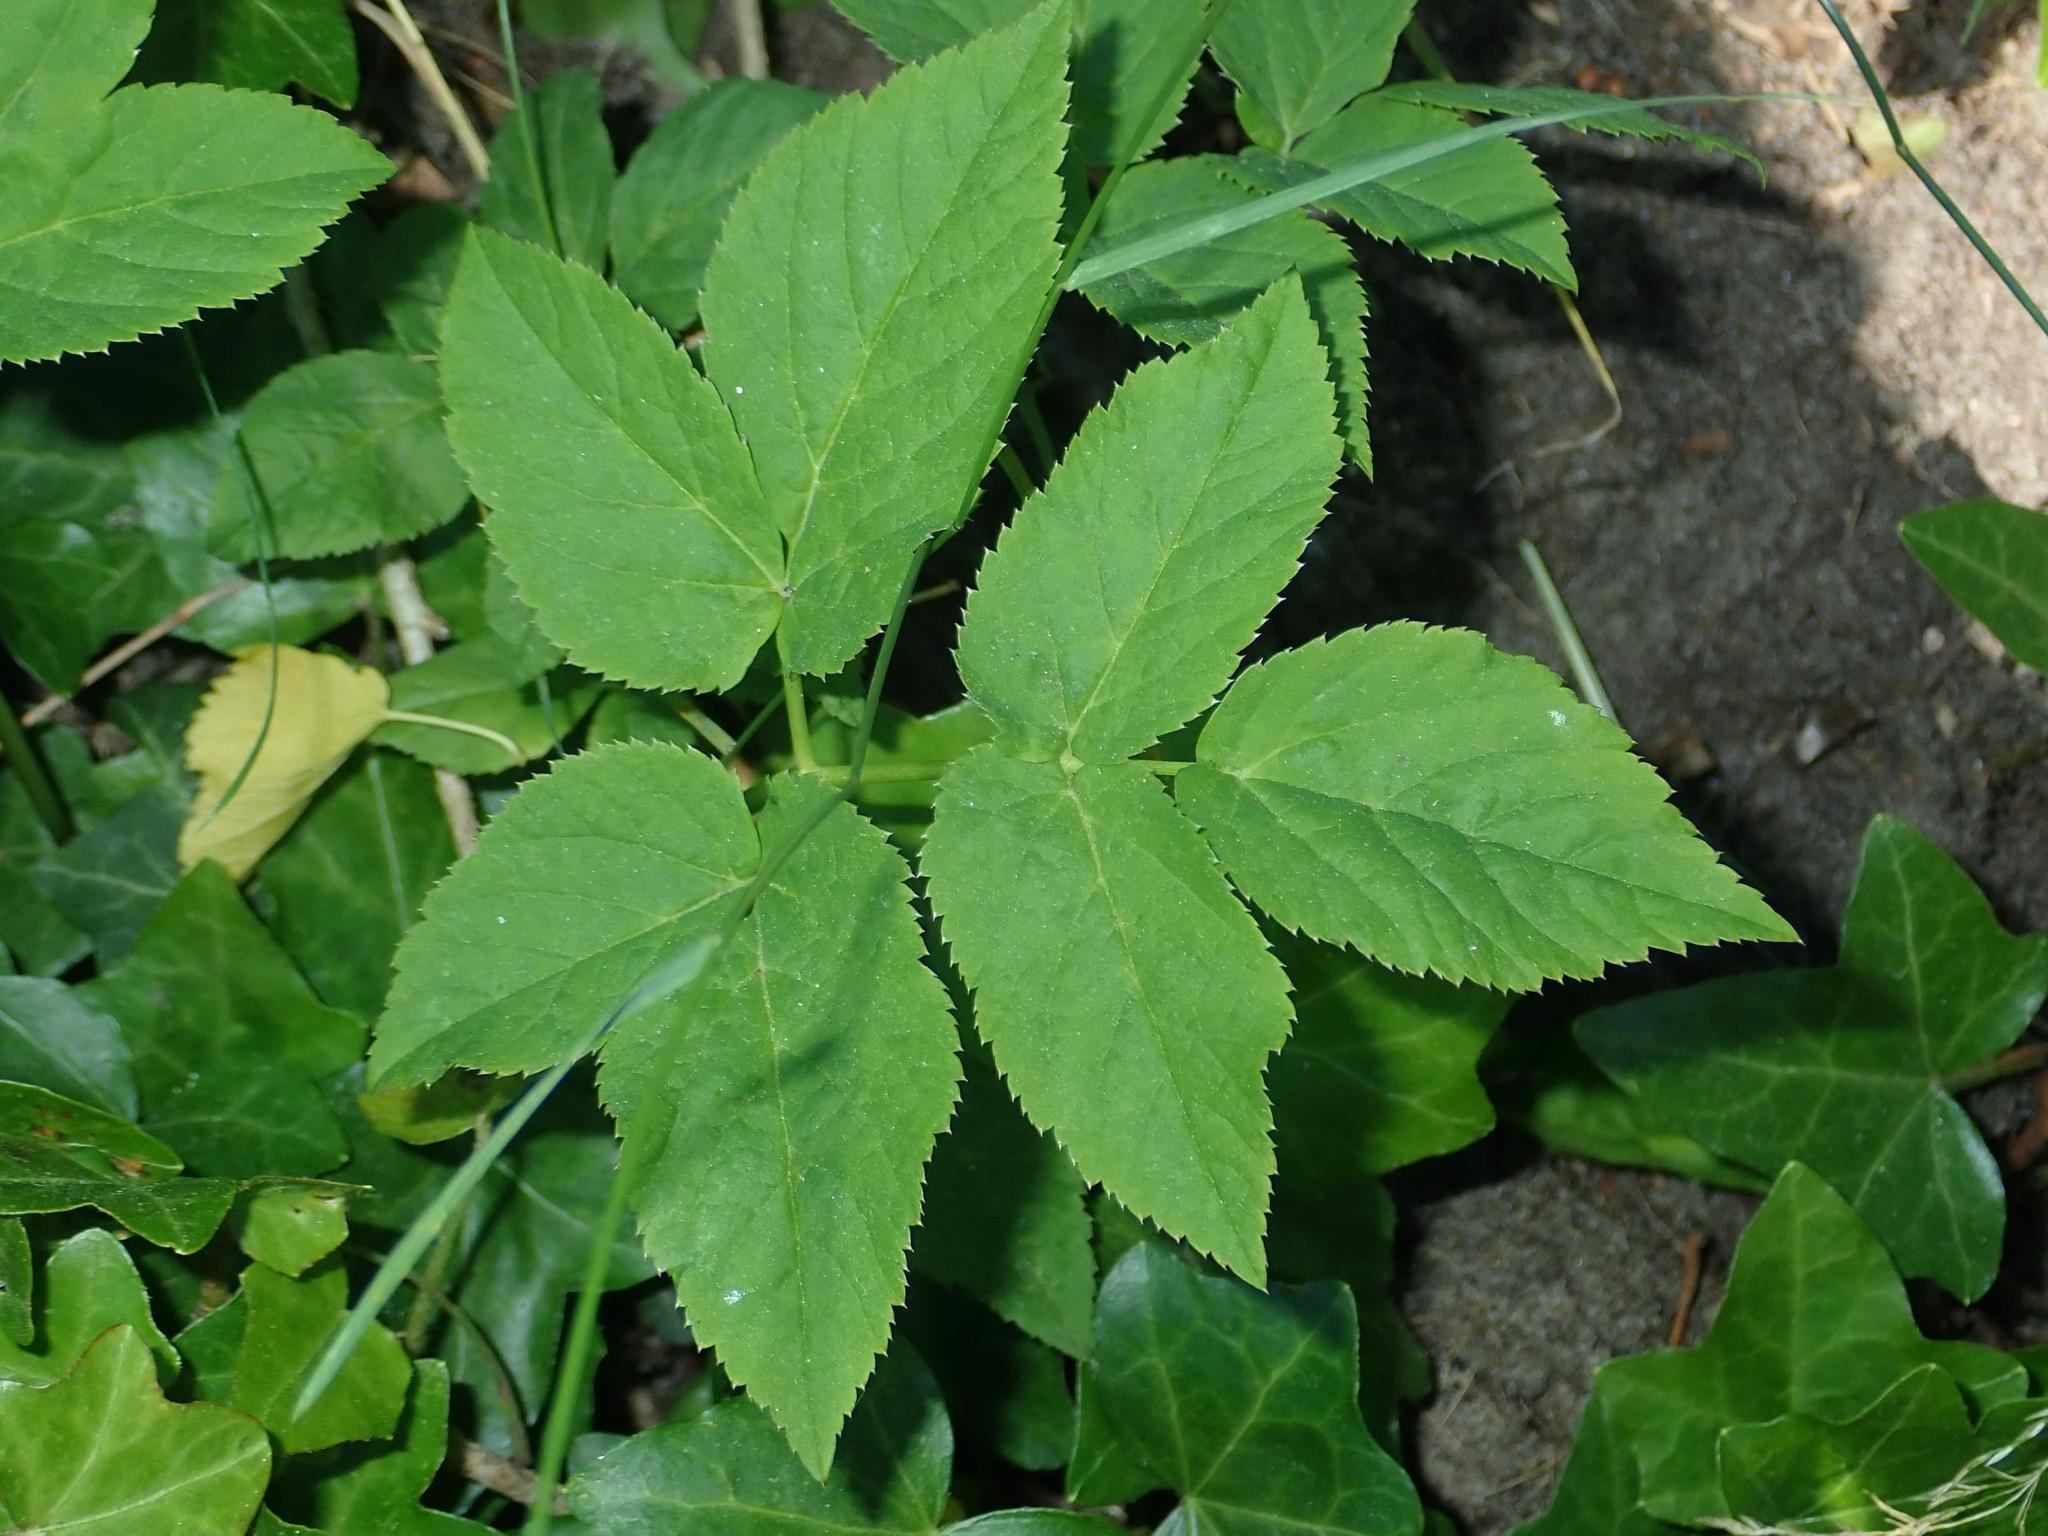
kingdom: Plantae
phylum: Tracheophyta
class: Magnoliopsida
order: Apiales
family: Apiaceae
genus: Aegopodium
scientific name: Aegopodium podagraria
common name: Ground-elder
